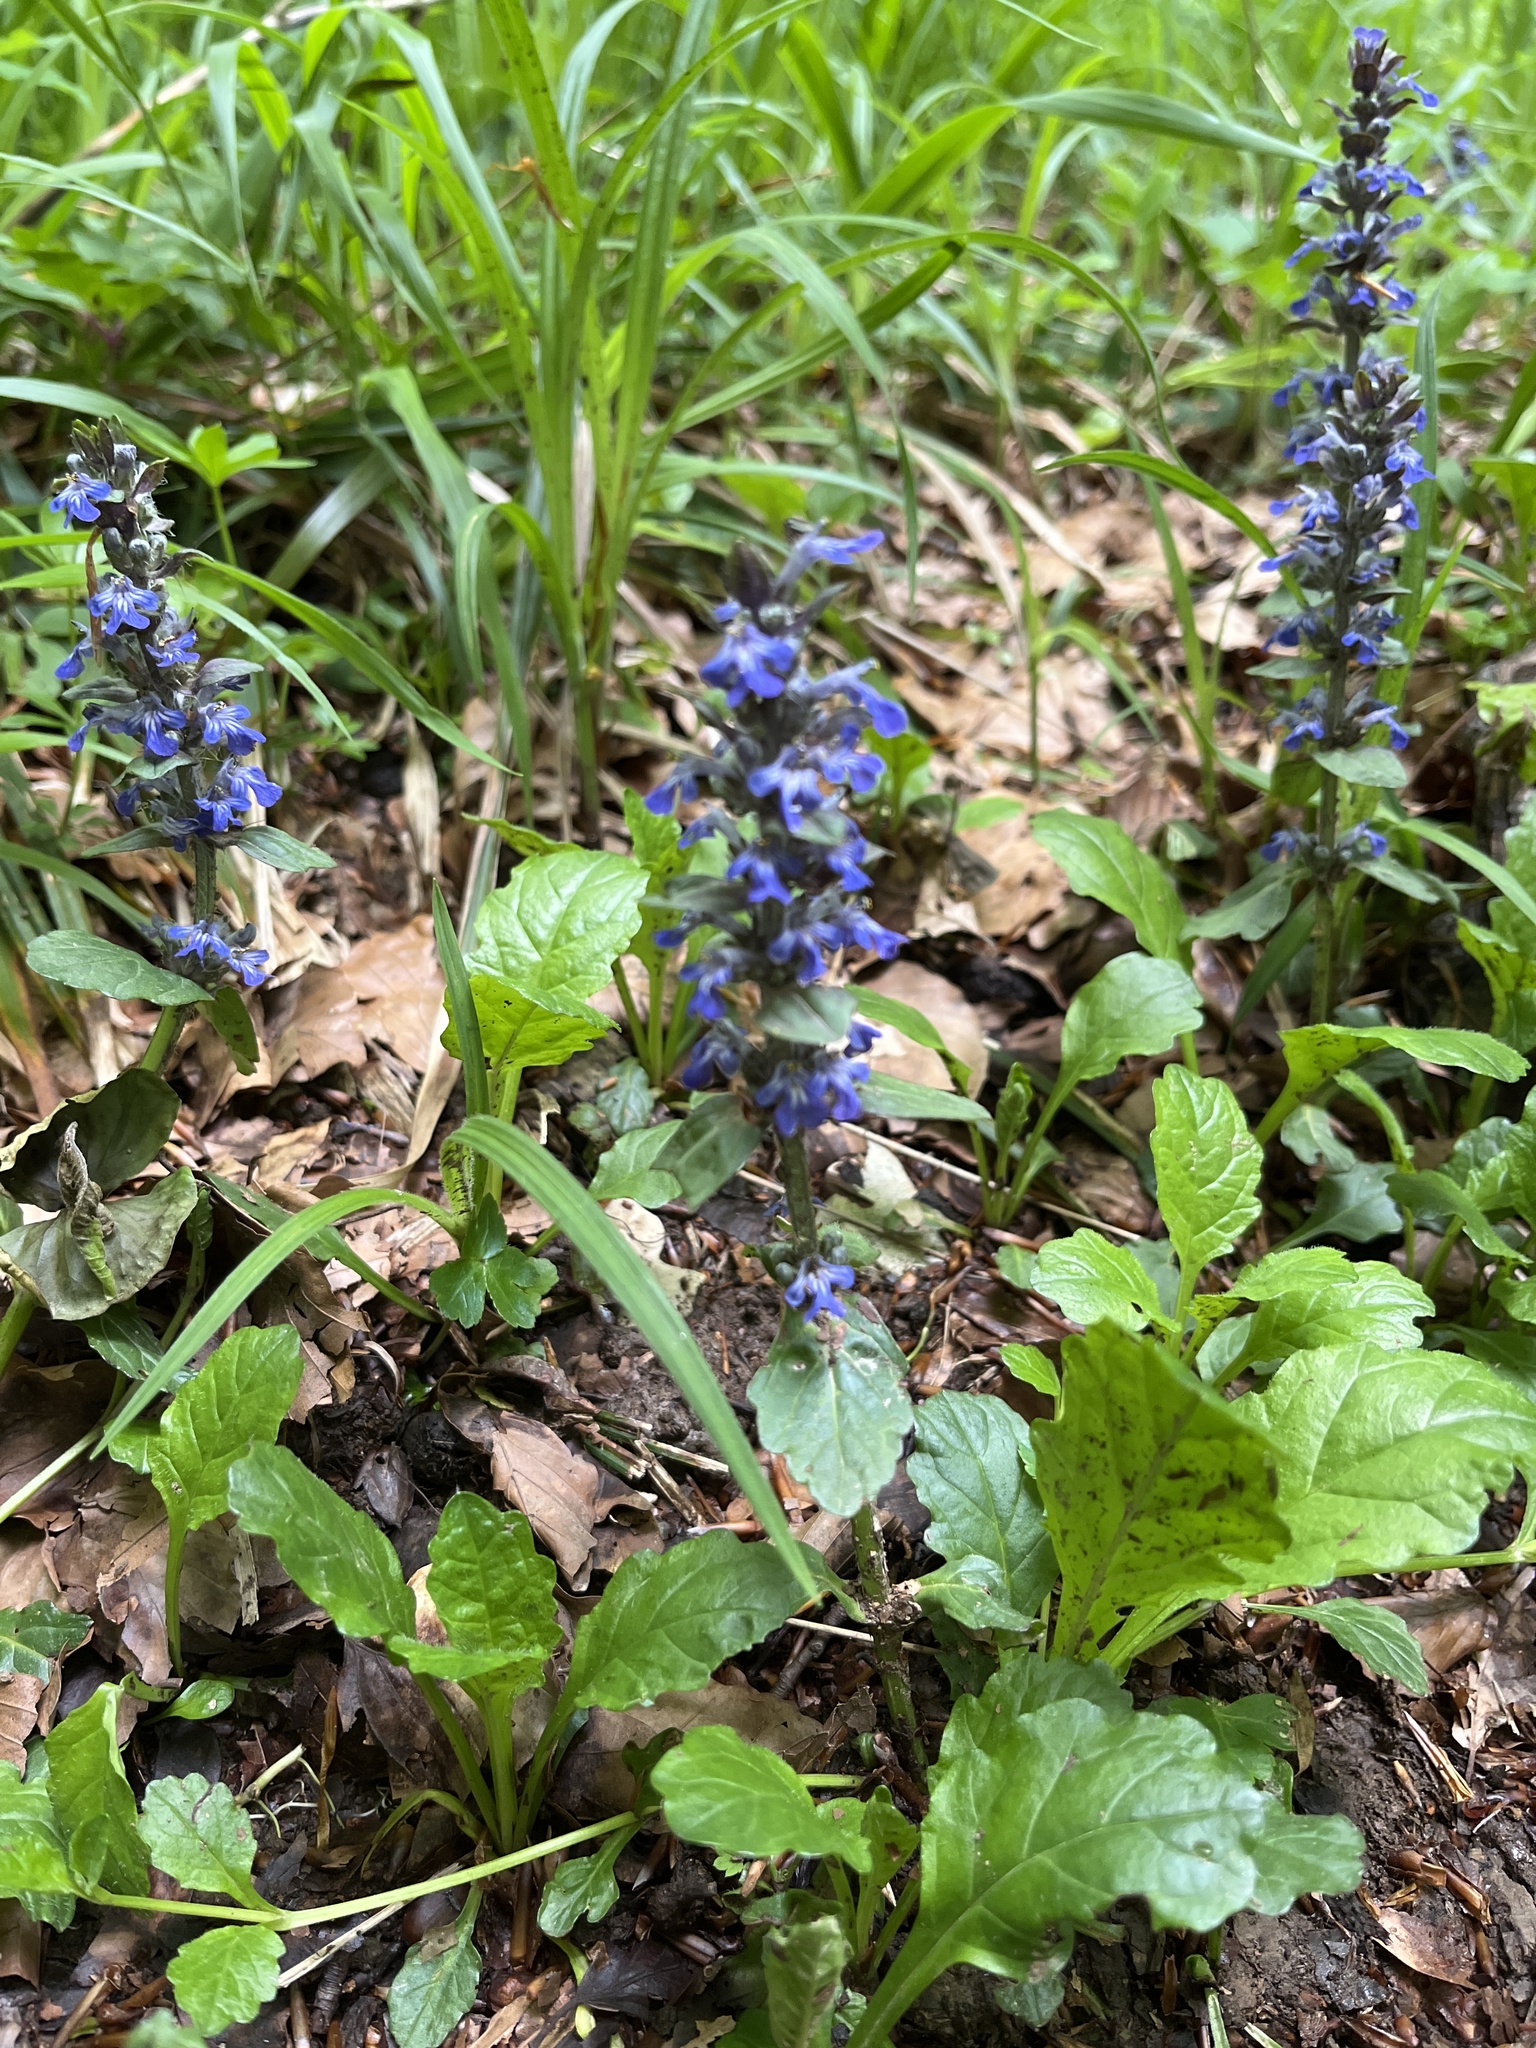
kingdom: Plantae
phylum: Tracheophyta
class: Magnoliopsida
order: Lamiales
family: Lamiaceae
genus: Ajuga
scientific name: Ajuga reptans
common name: Bugle
